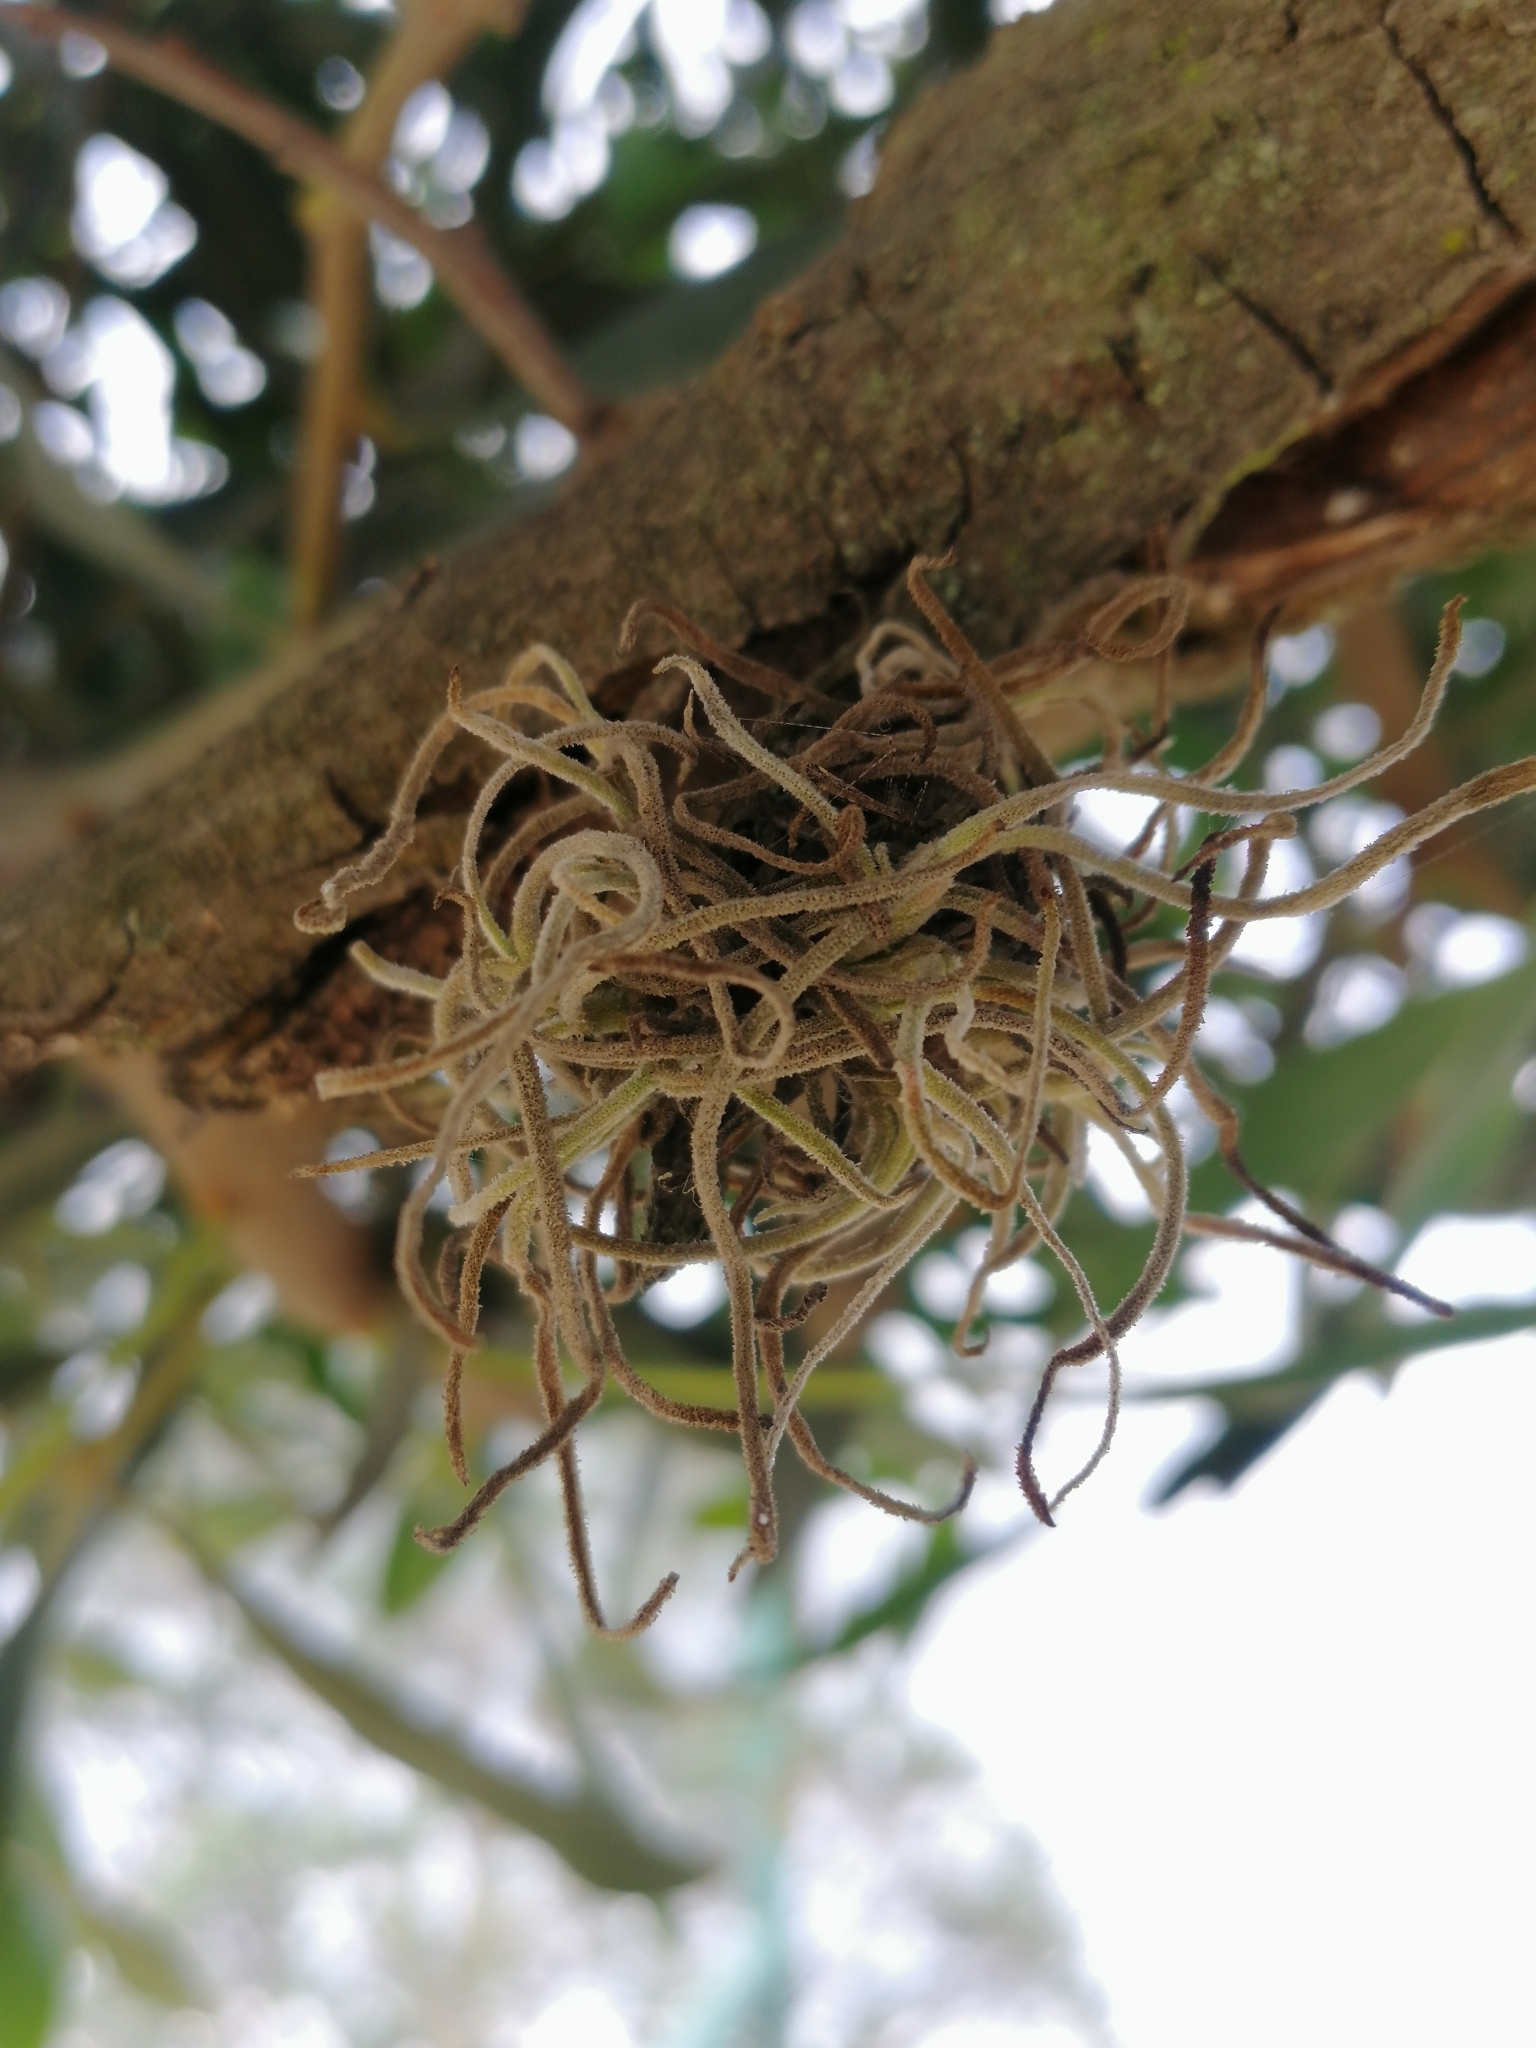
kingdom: Plantae
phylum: Tracheophyta
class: Liliopsida
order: Poales
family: Bromeliaceae
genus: Tillandsia
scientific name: Tillandsia recurvata
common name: Small ballmoss
